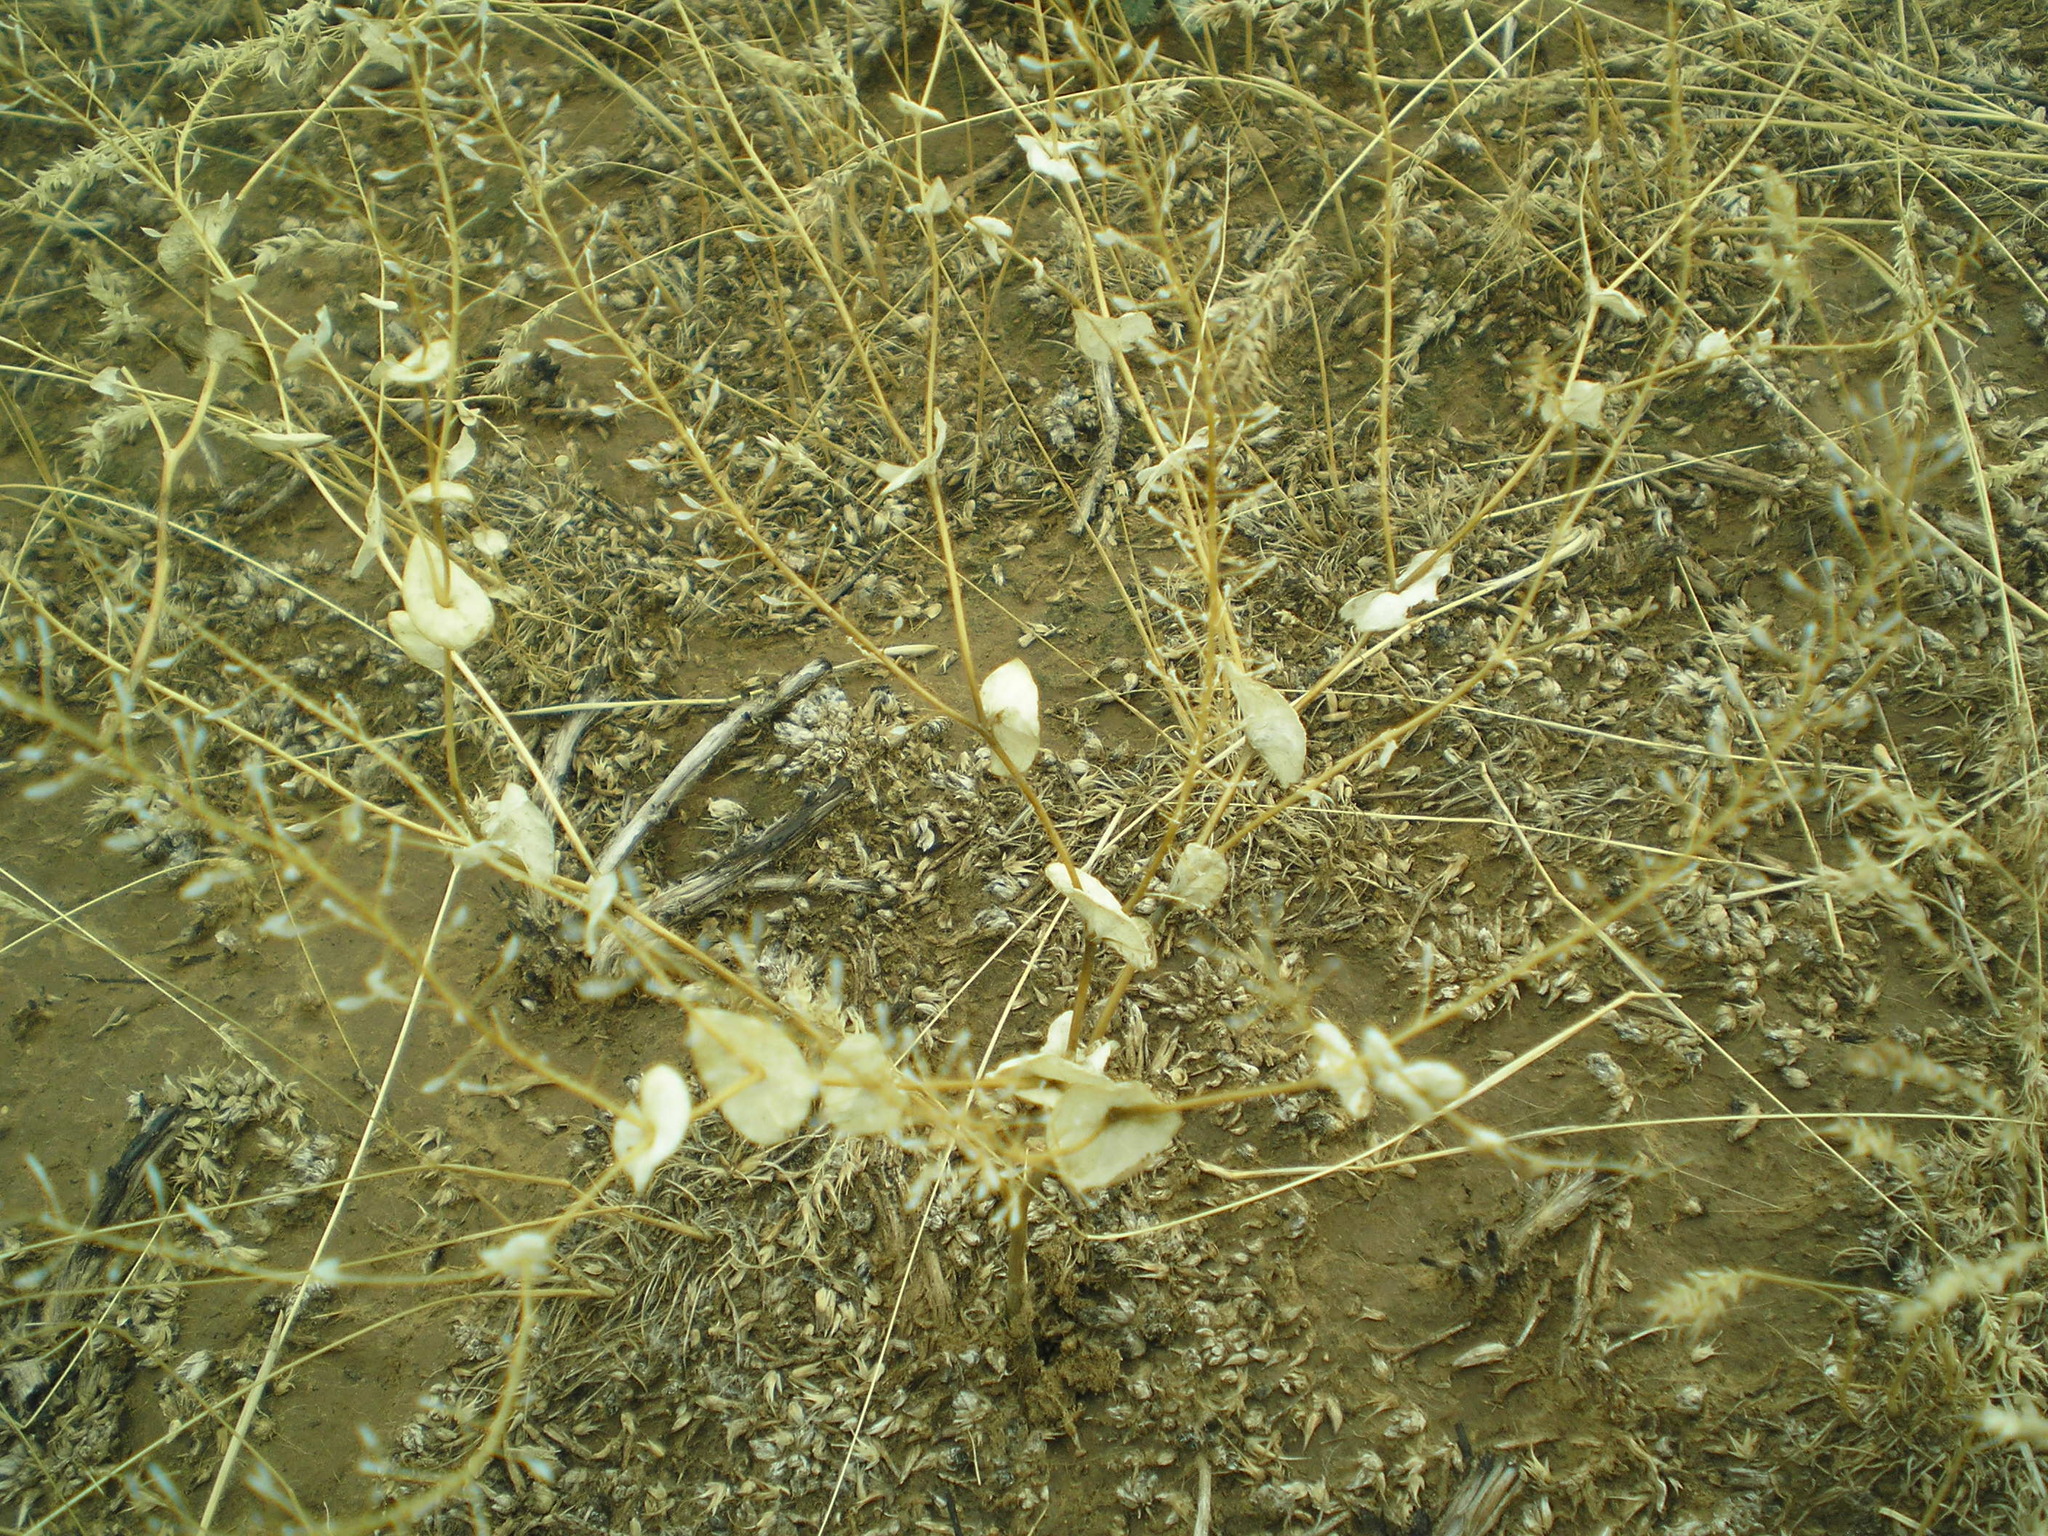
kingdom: Plantae
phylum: Tracheophyta
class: Magnoliopsida
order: Brassicales
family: Brassicaceae
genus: Lepidium
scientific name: Lepidium perfoliatum
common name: Perfoliate pepperwort
